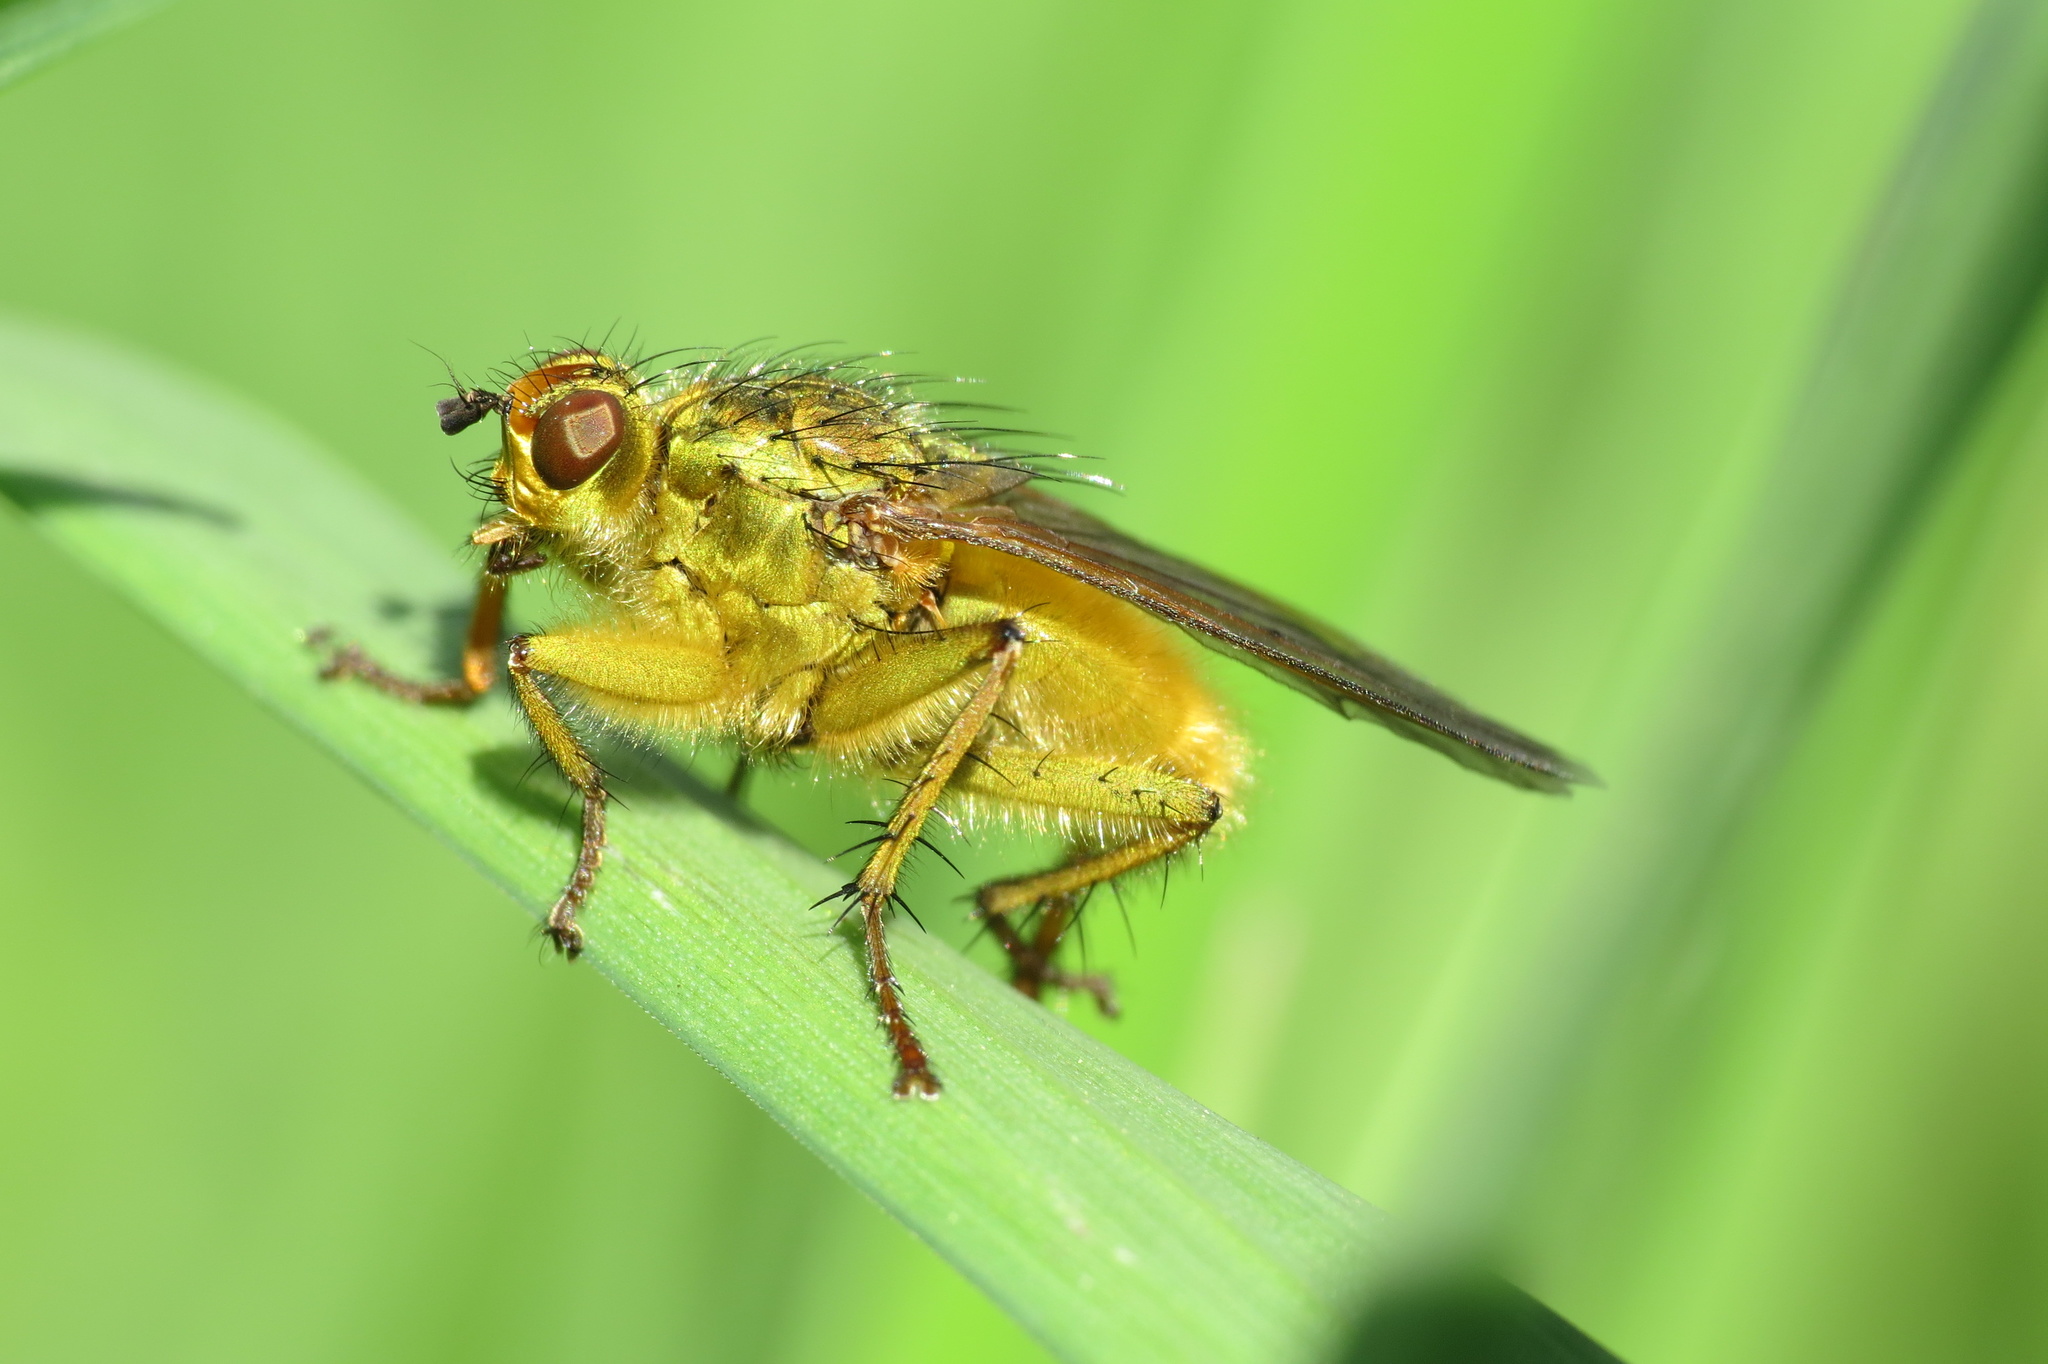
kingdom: Animalia
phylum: Arthropoda
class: Insecta
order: Diptera
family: Scathophagidae
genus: Scathophaga
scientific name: Scathophaga stercoraria
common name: Yellow dung fly
